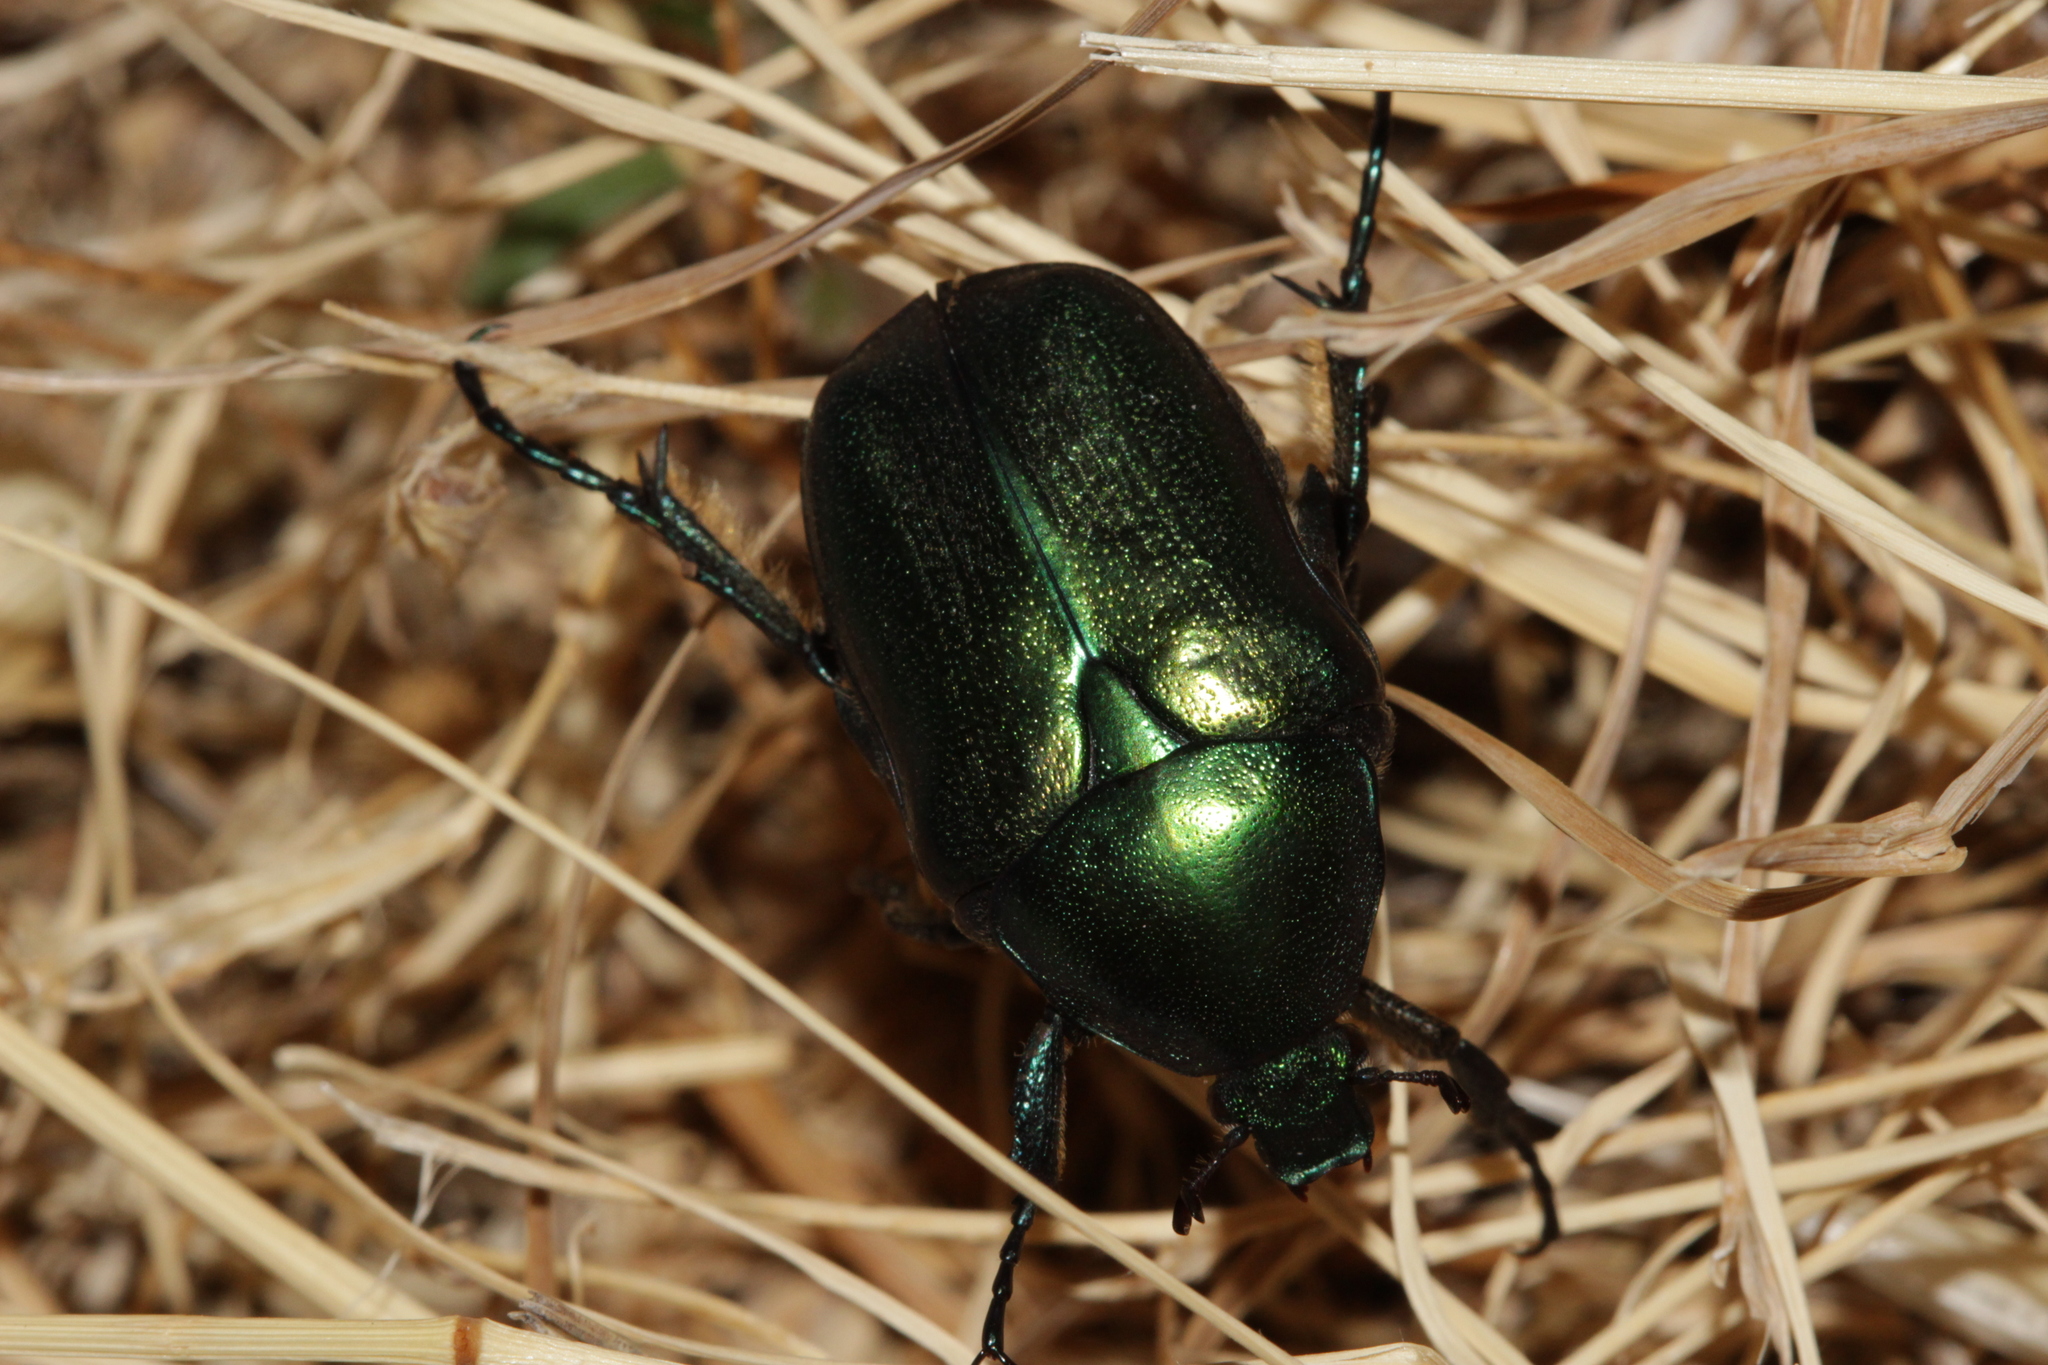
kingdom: Animalia
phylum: Arthropoda
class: Insecta
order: Coleoptera
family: Scarabaeidae
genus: Protaetia
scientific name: Protaetia angustata
